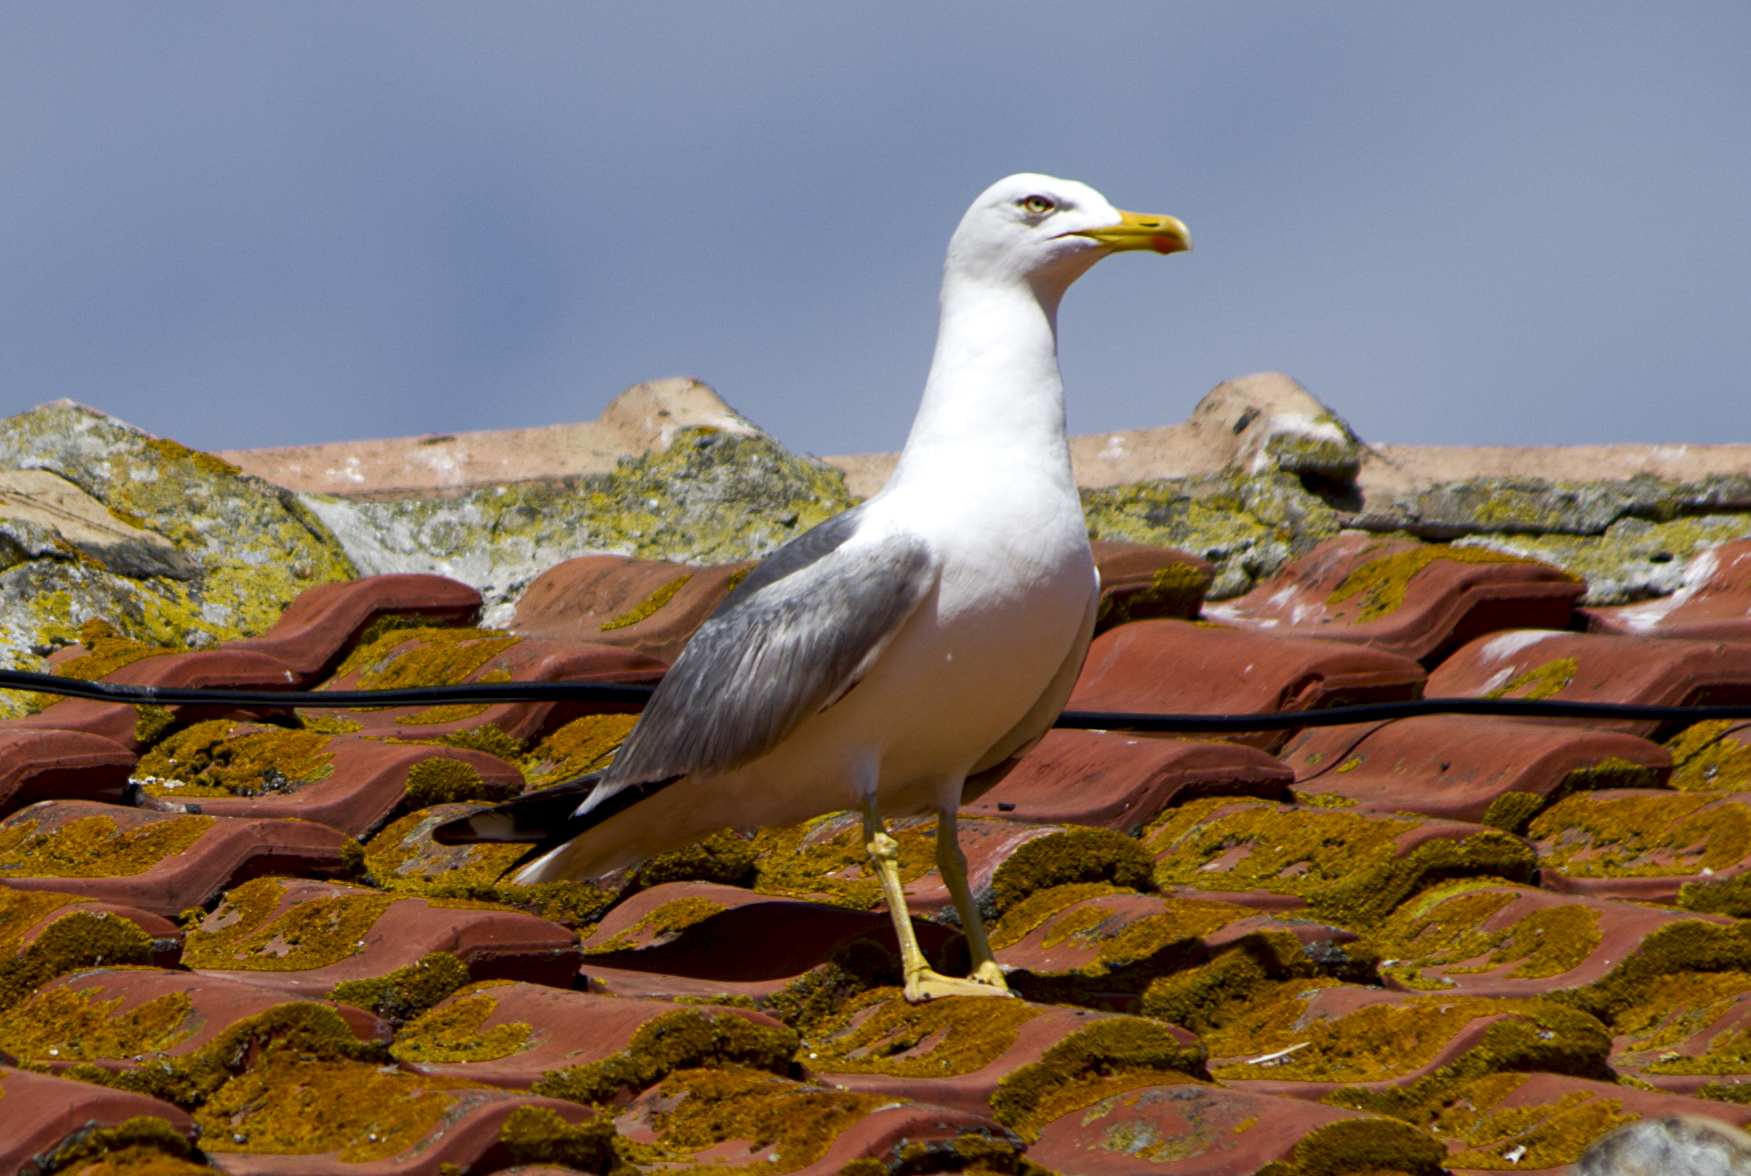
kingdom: Animalia
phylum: Chordata
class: Aves
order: Charadriiformes
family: Laridae
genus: Larus
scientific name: Larus michahellis
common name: Yellow-legged gull
